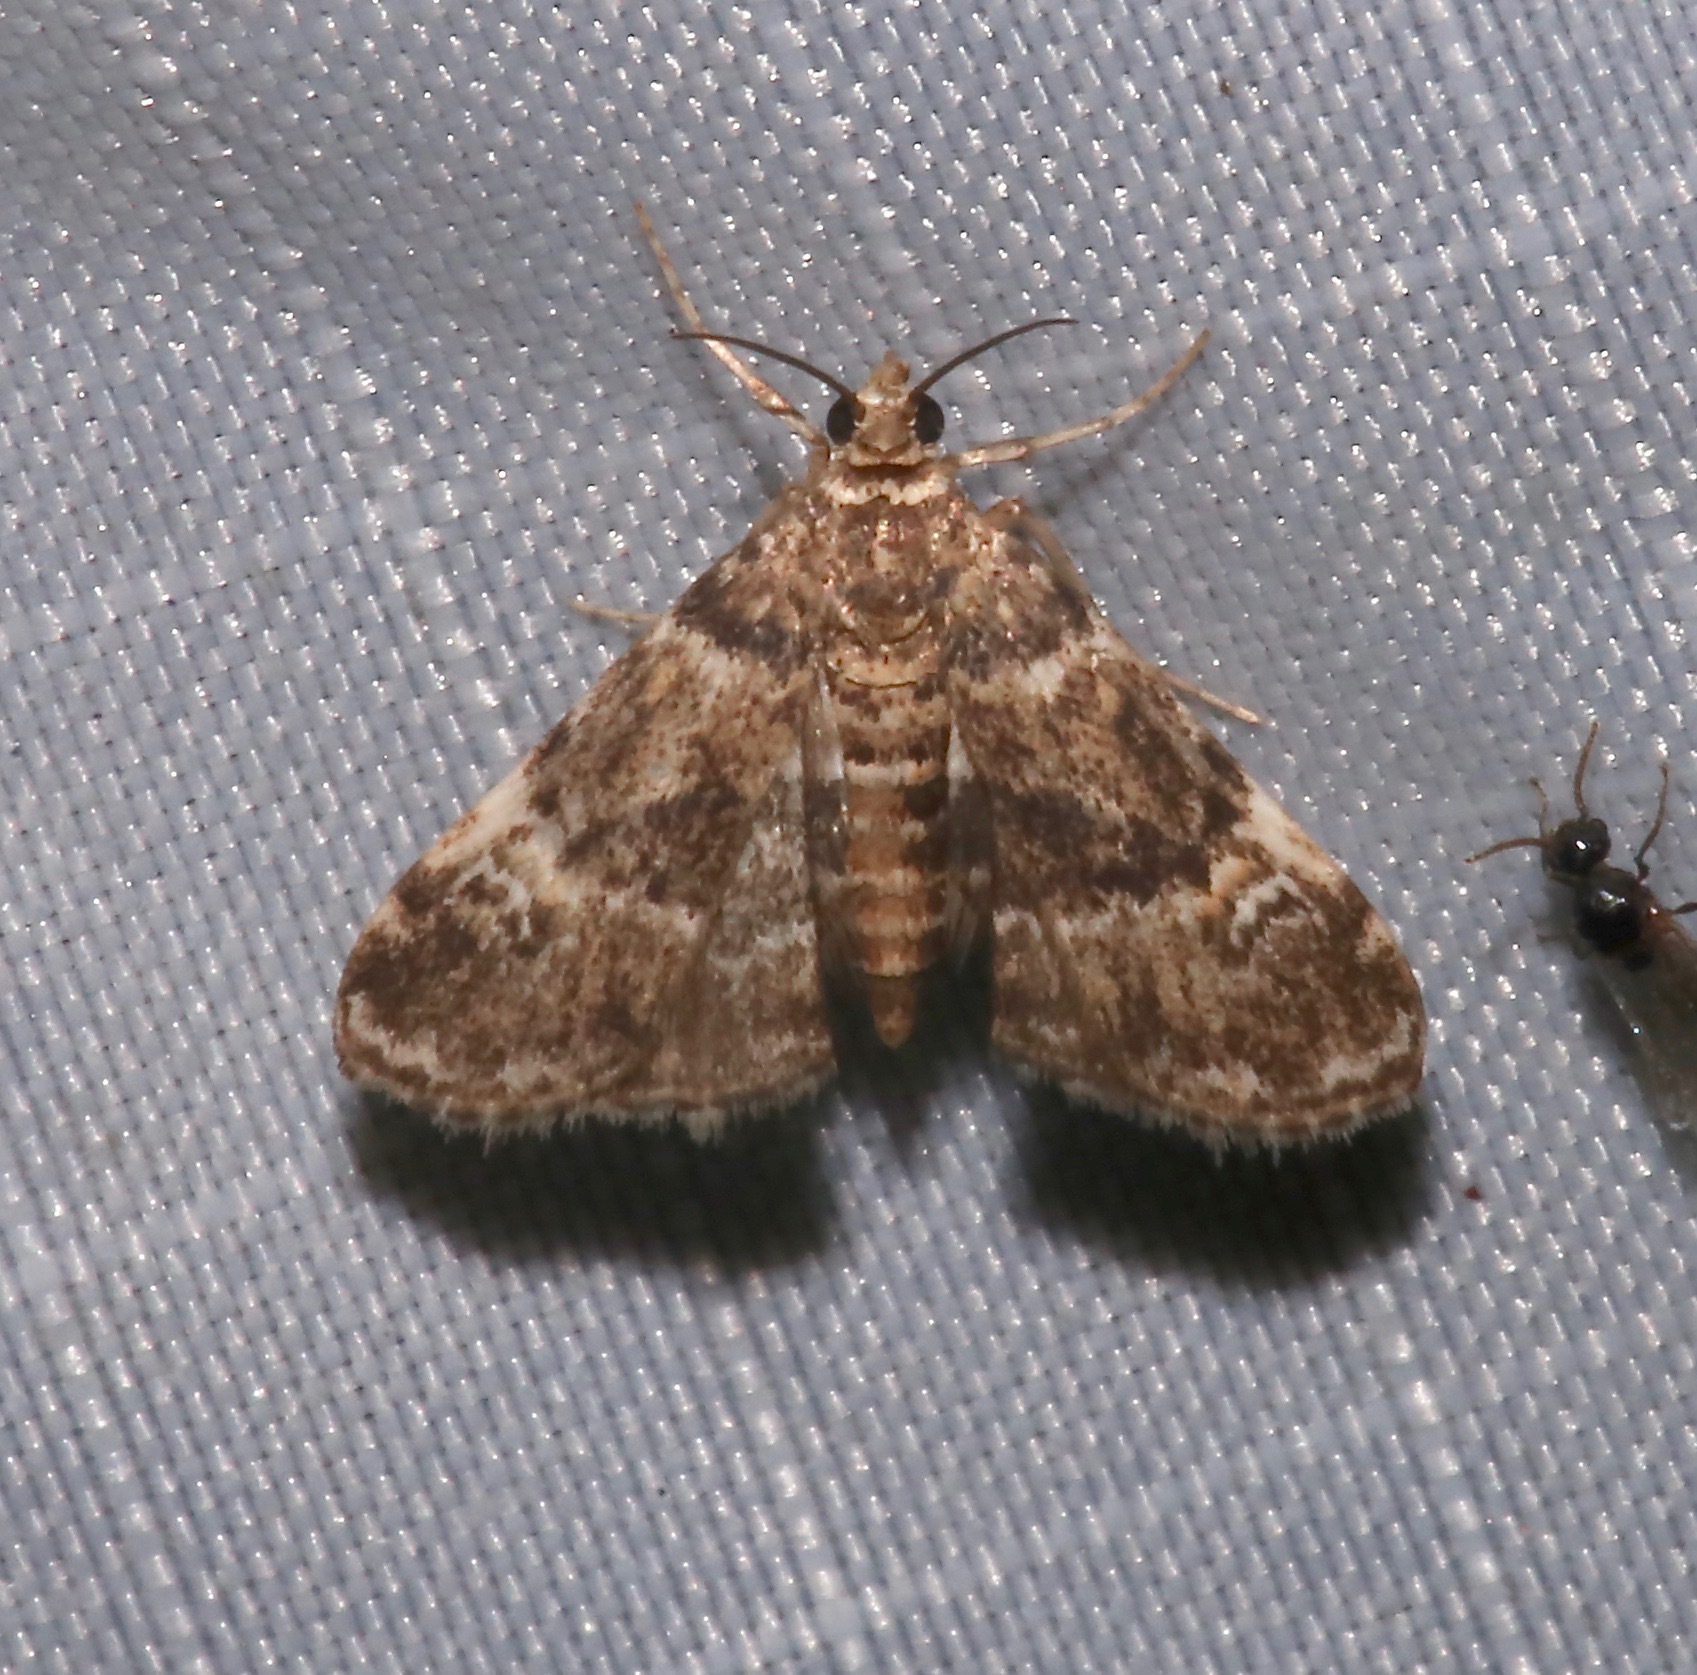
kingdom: Animalia
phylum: Arthropoda
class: Insecta
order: Lepidoptera
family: Crambidae
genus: Elophila
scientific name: Elophila obliteralis
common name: Waterlily leafcutter moth
